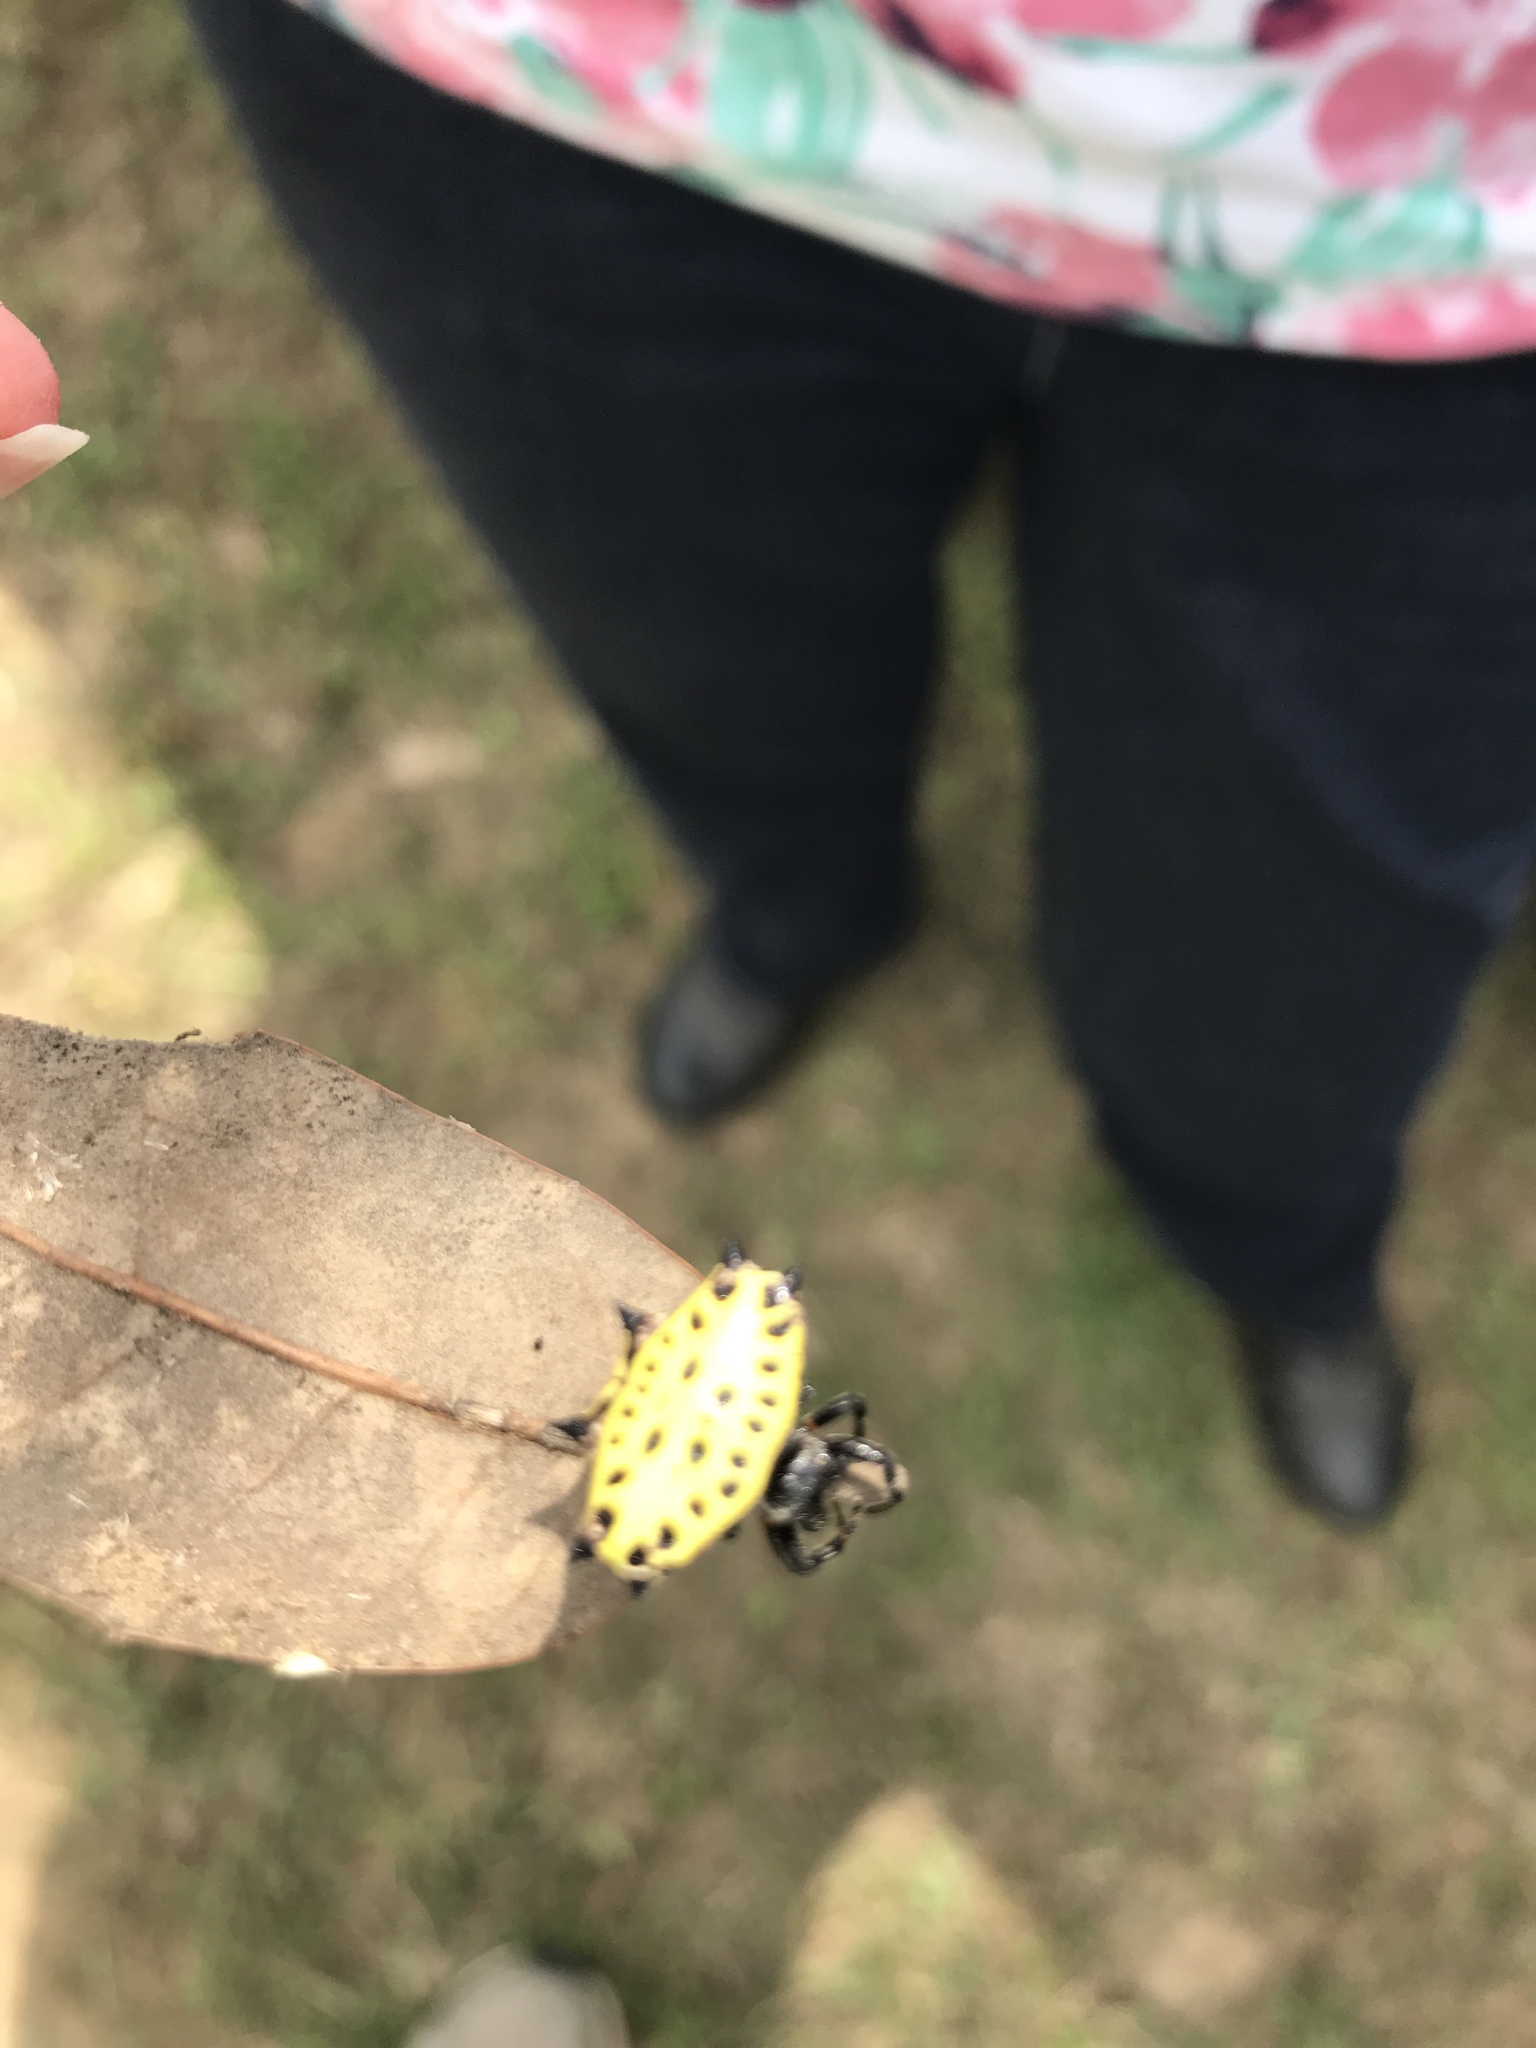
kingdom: Animalia
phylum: Arthropoda
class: Arachnida
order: Araneae
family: Araneidae
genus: Gasteracantha
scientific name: Gasteracantha cancriformis
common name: Orb weavers
